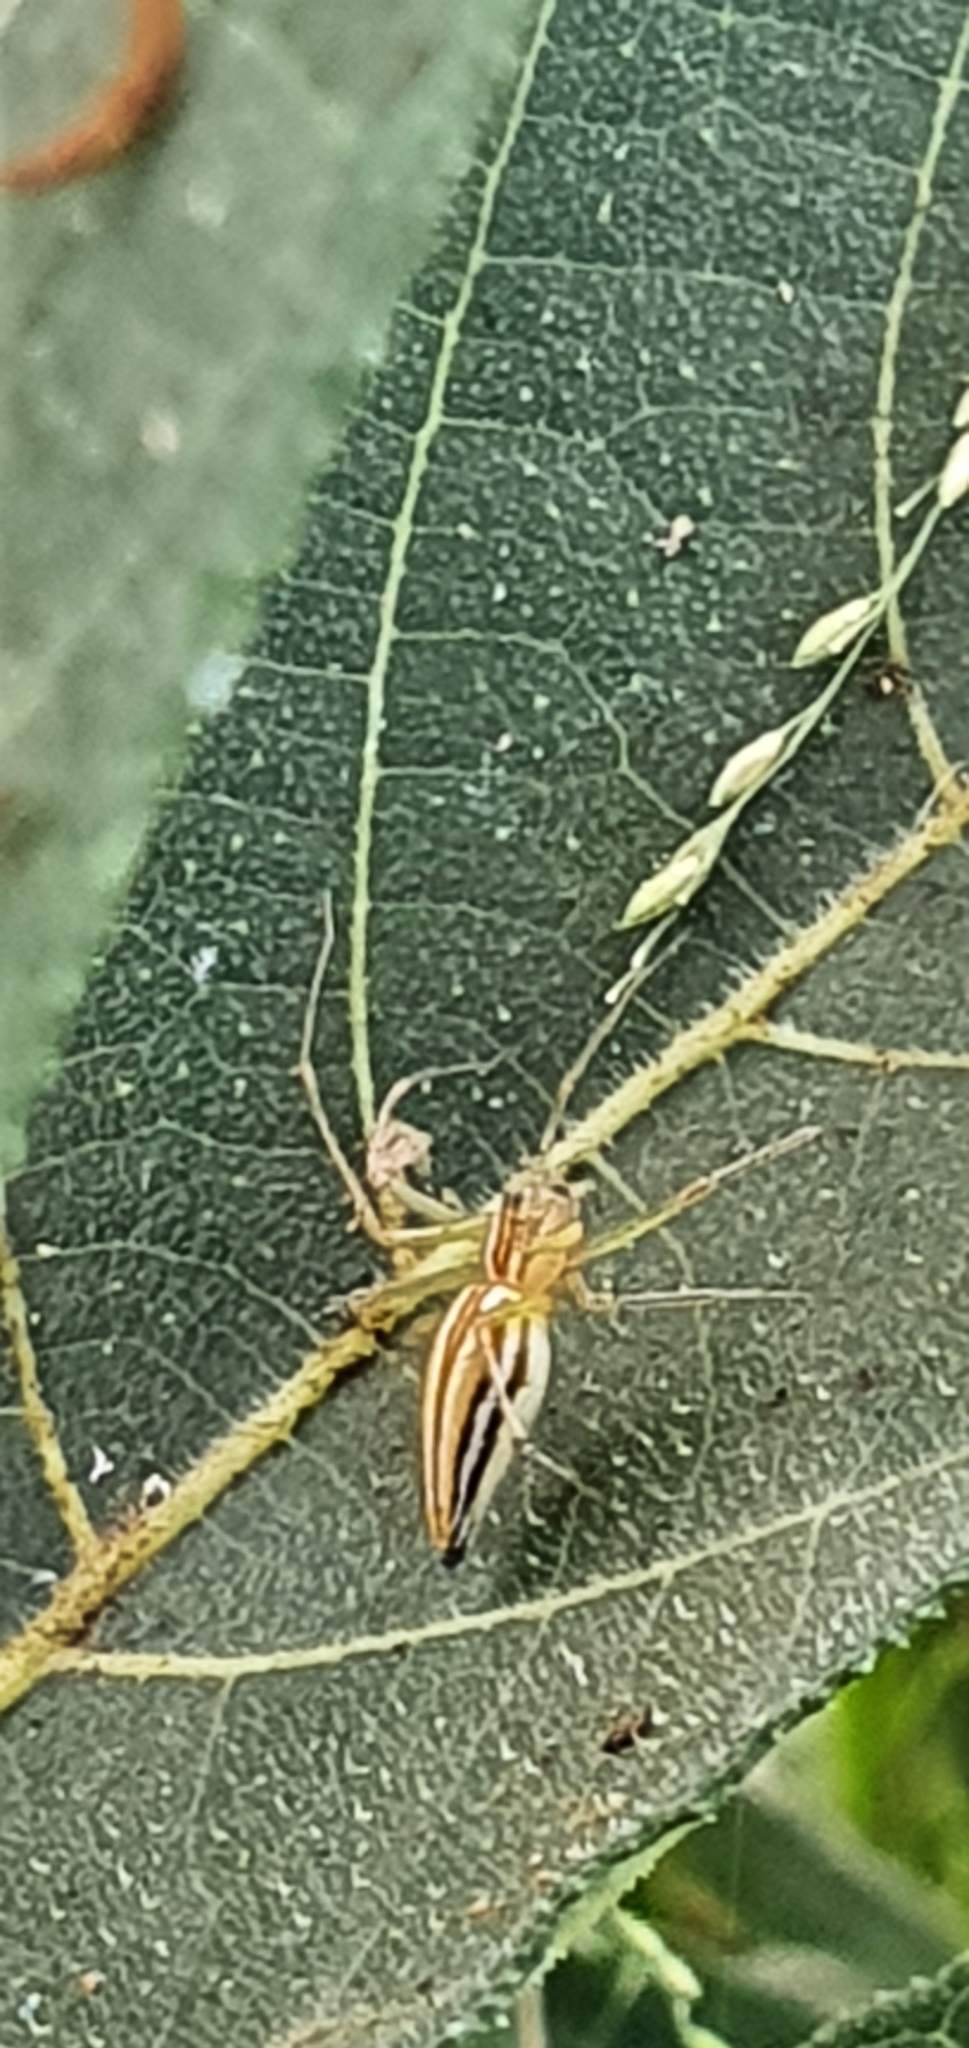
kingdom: Animalia
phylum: Arthropoda
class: Arachnida
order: Araneae
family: Oxyopidae
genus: Oxyopes
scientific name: Oxyopes macilentus
